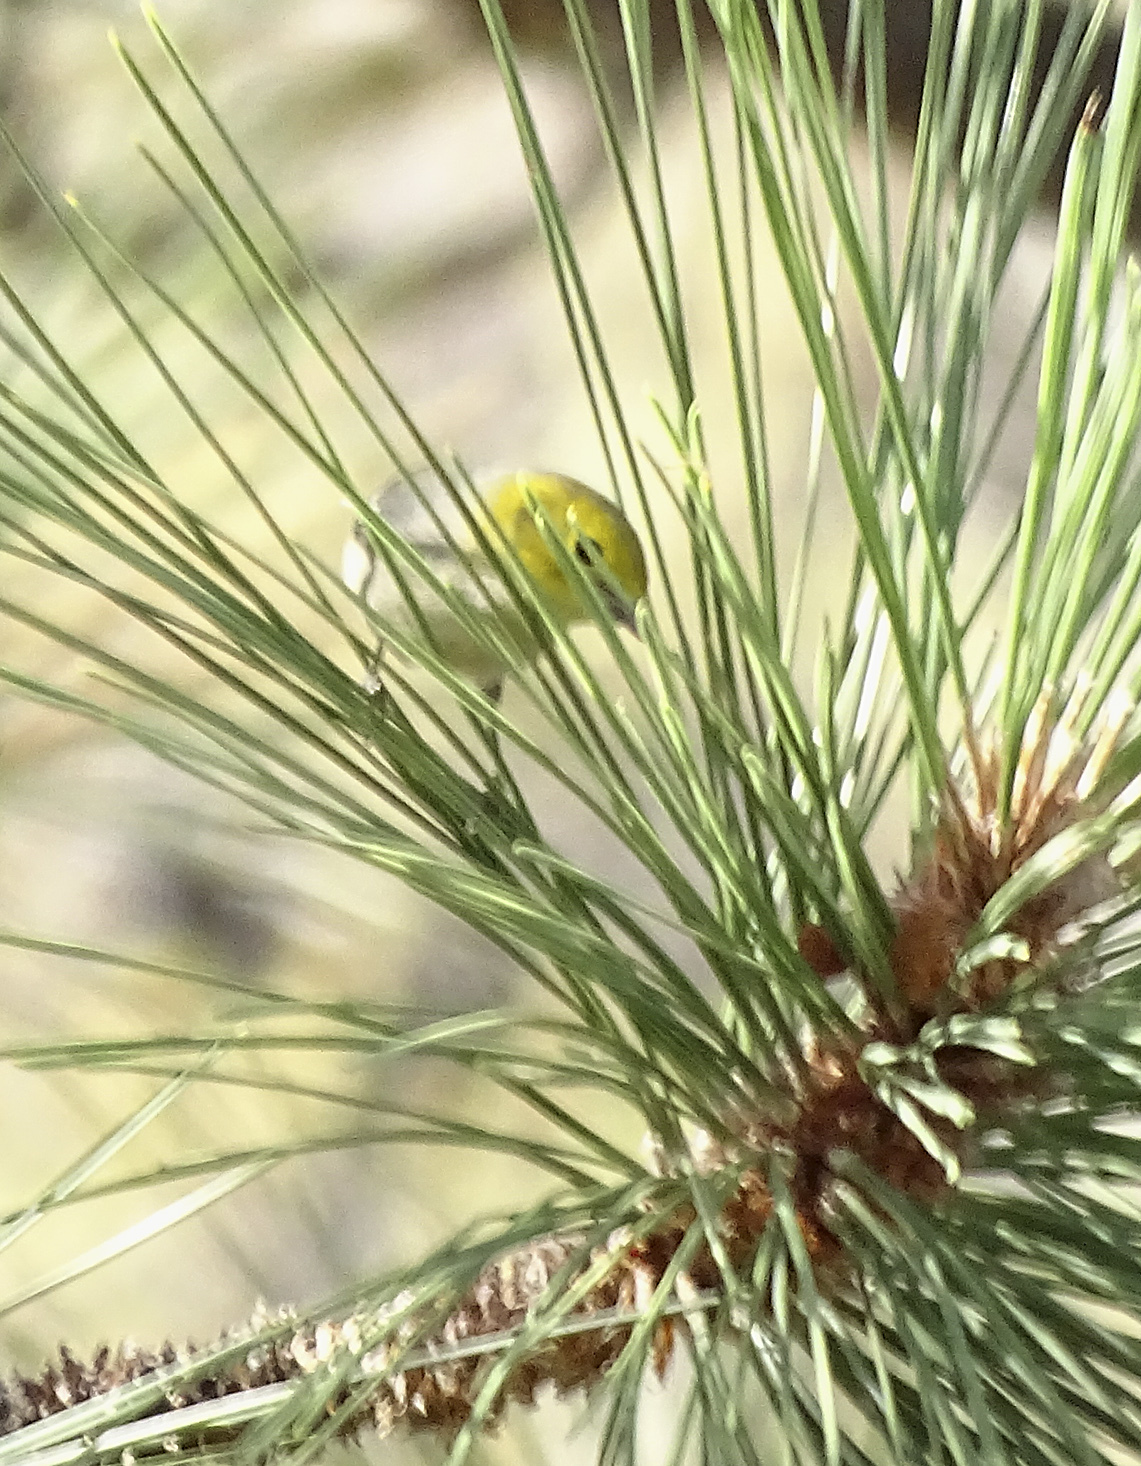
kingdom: Animalia
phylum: Chordata
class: Aves
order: Passeriformes
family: Parulidae
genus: Setophaga
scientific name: Setophaga occidentalis
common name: Hermit warbler
